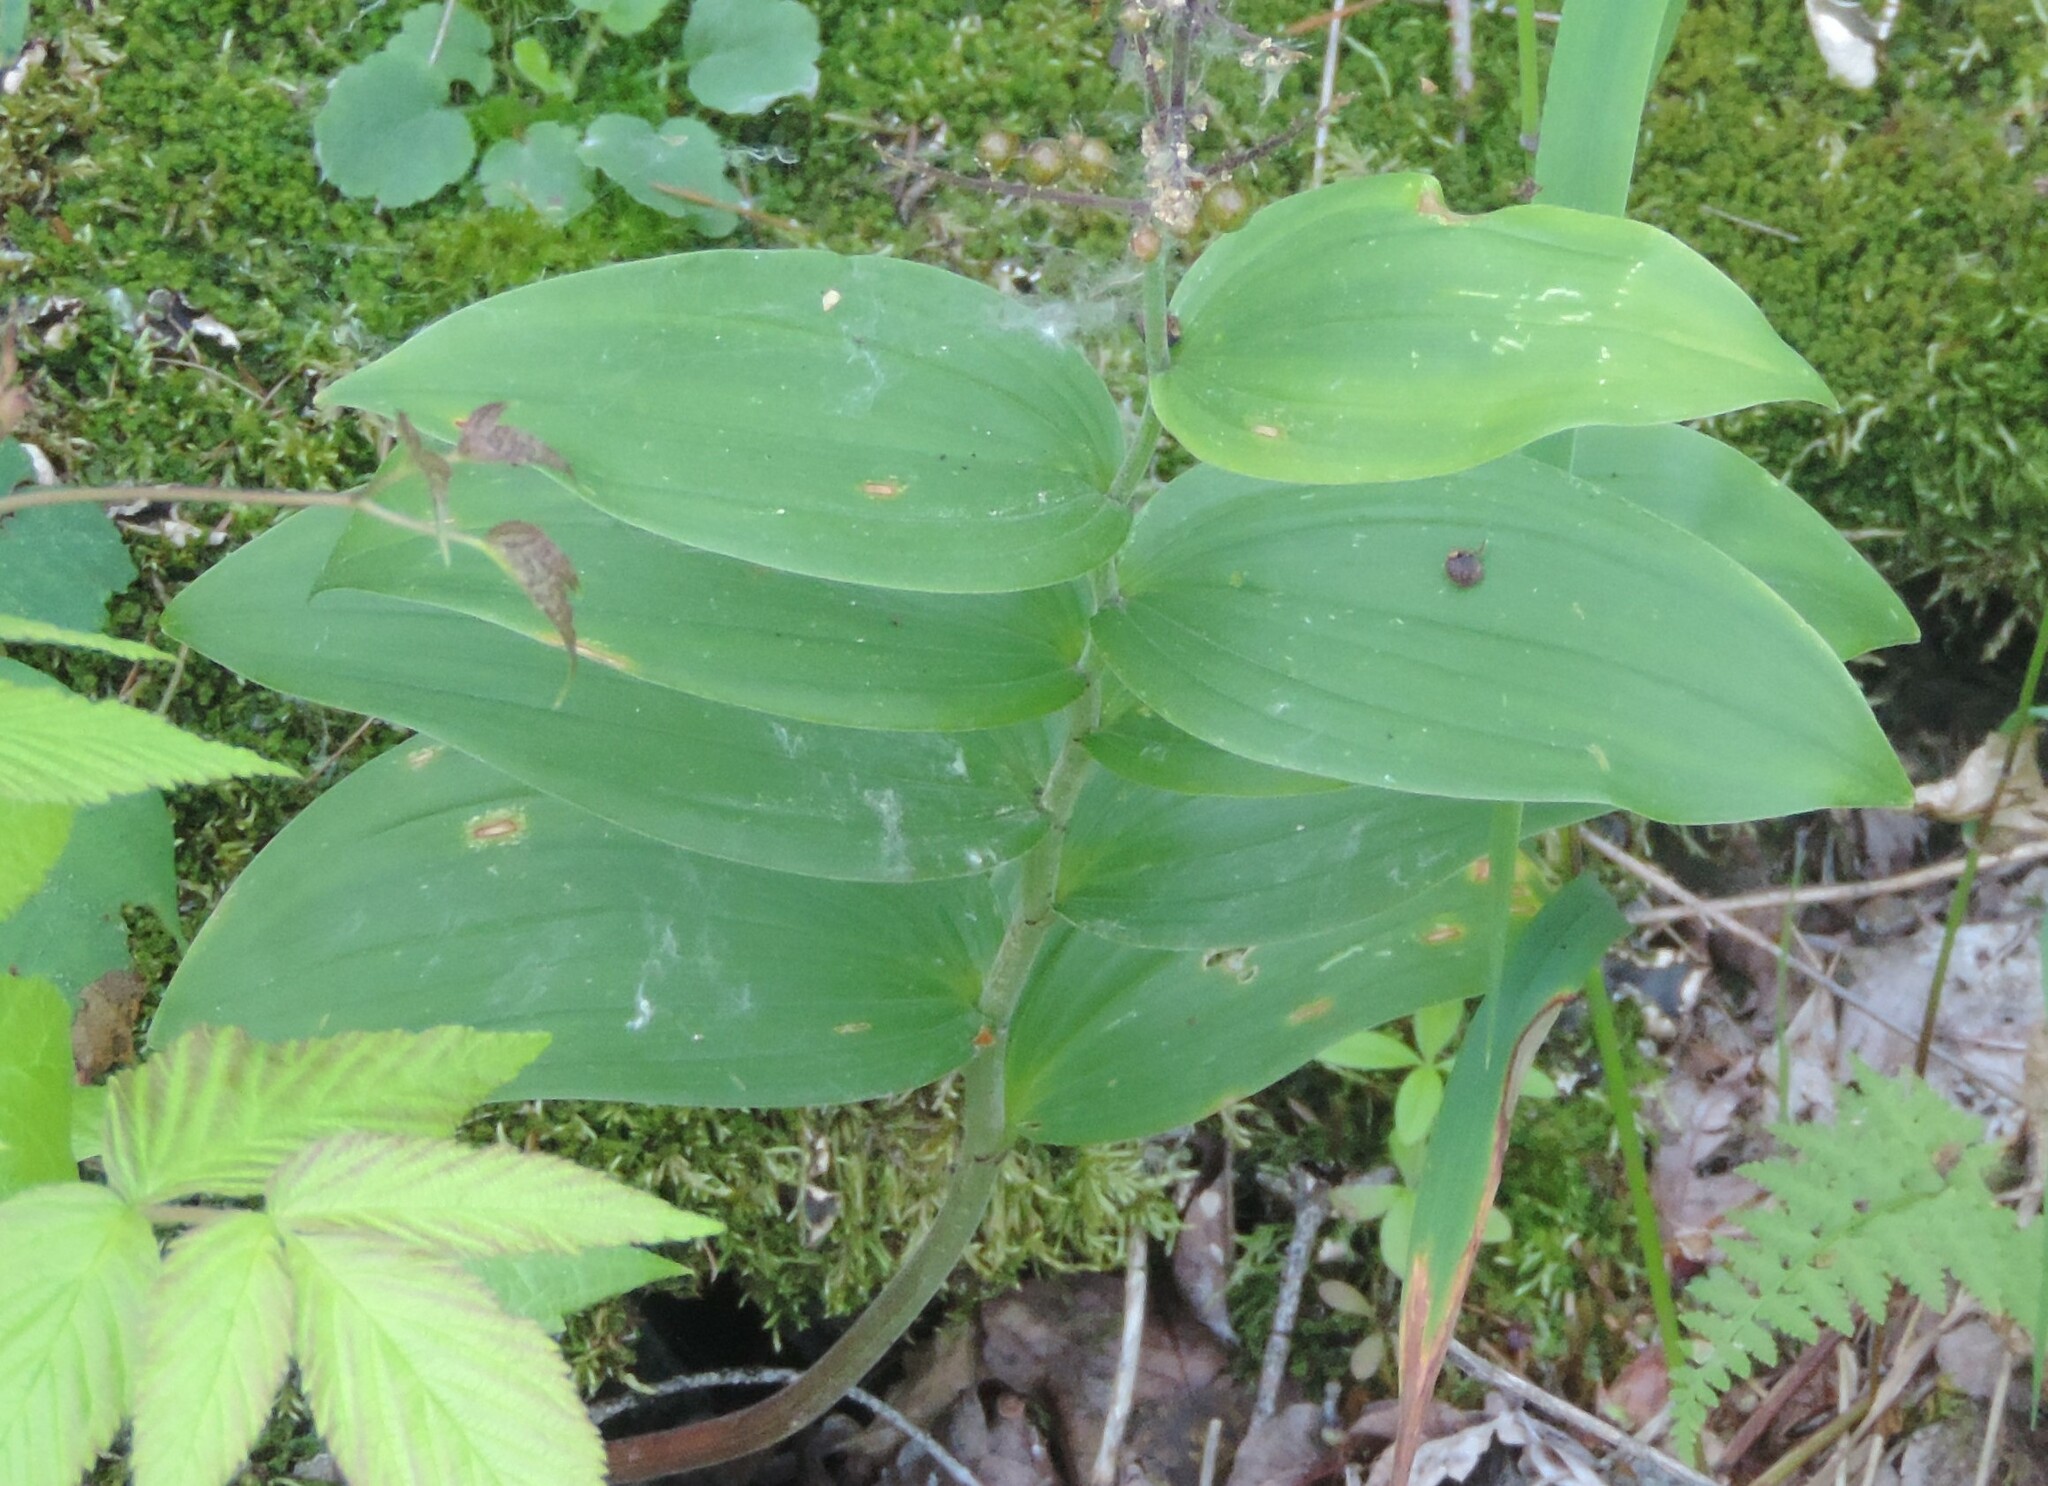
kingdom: Plantae
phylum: Tracheophyta
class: Liliopsida
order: Asparagales
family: Asparagaceae
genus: Maianthemum
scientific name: Maianthemum racemosum
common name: False spikenard
